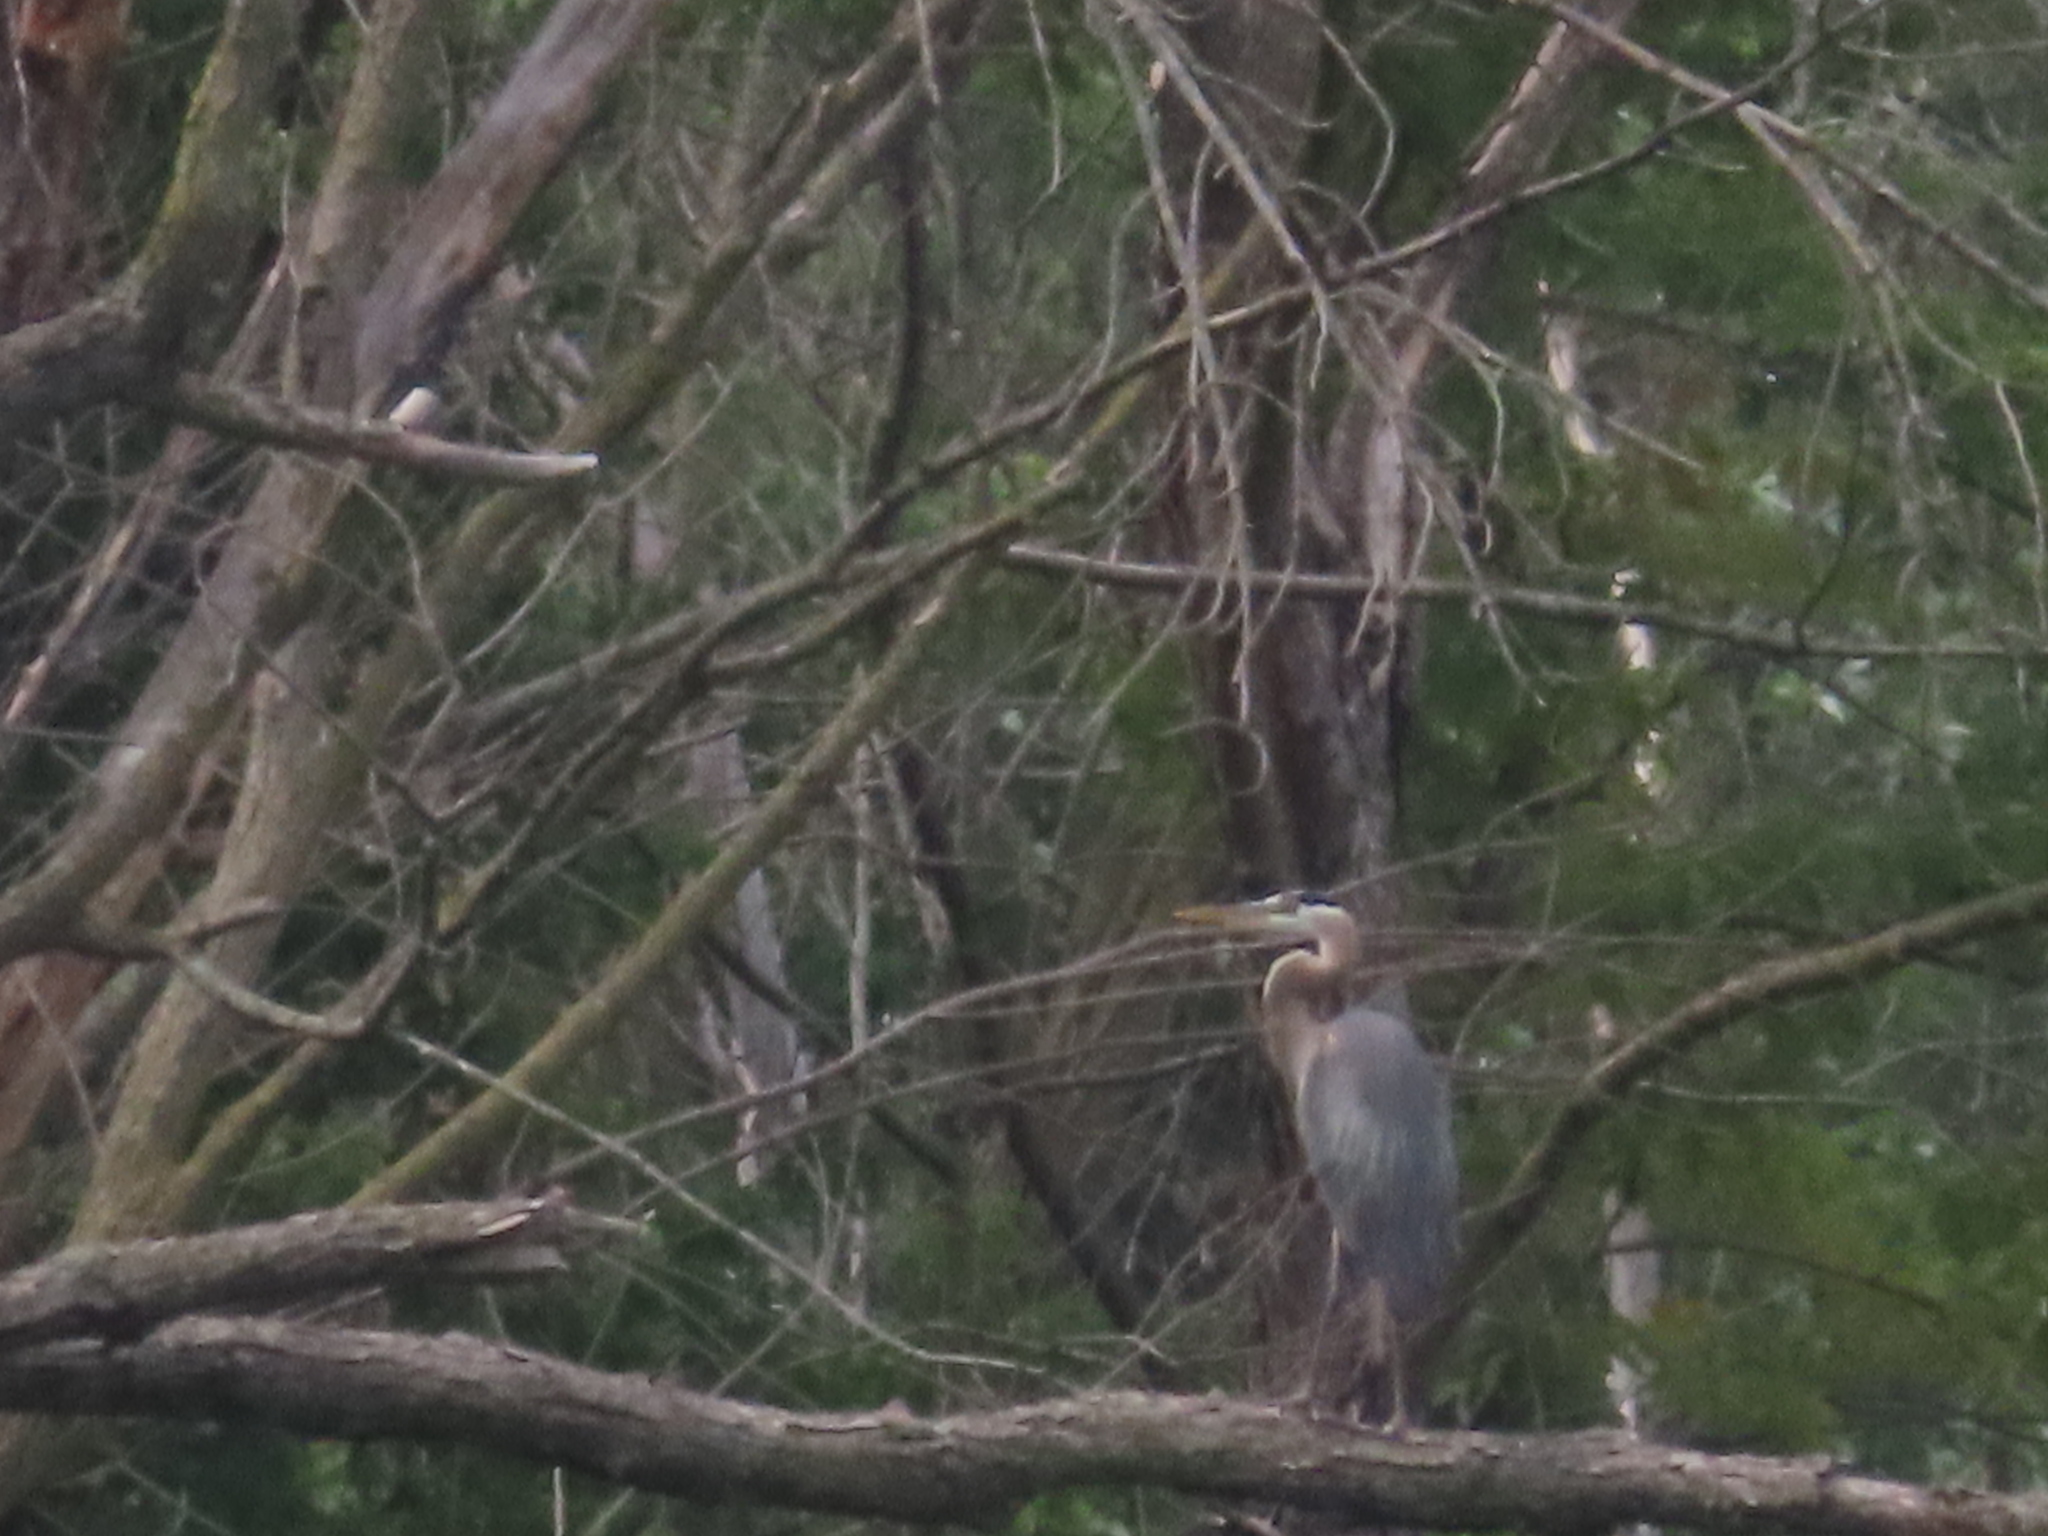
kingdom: Animalia
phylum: Chordata
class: Aves
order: Pelecaniformes
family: Ardeidae
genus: Ardea
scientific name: Ardea herodias
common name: Great blue heron
